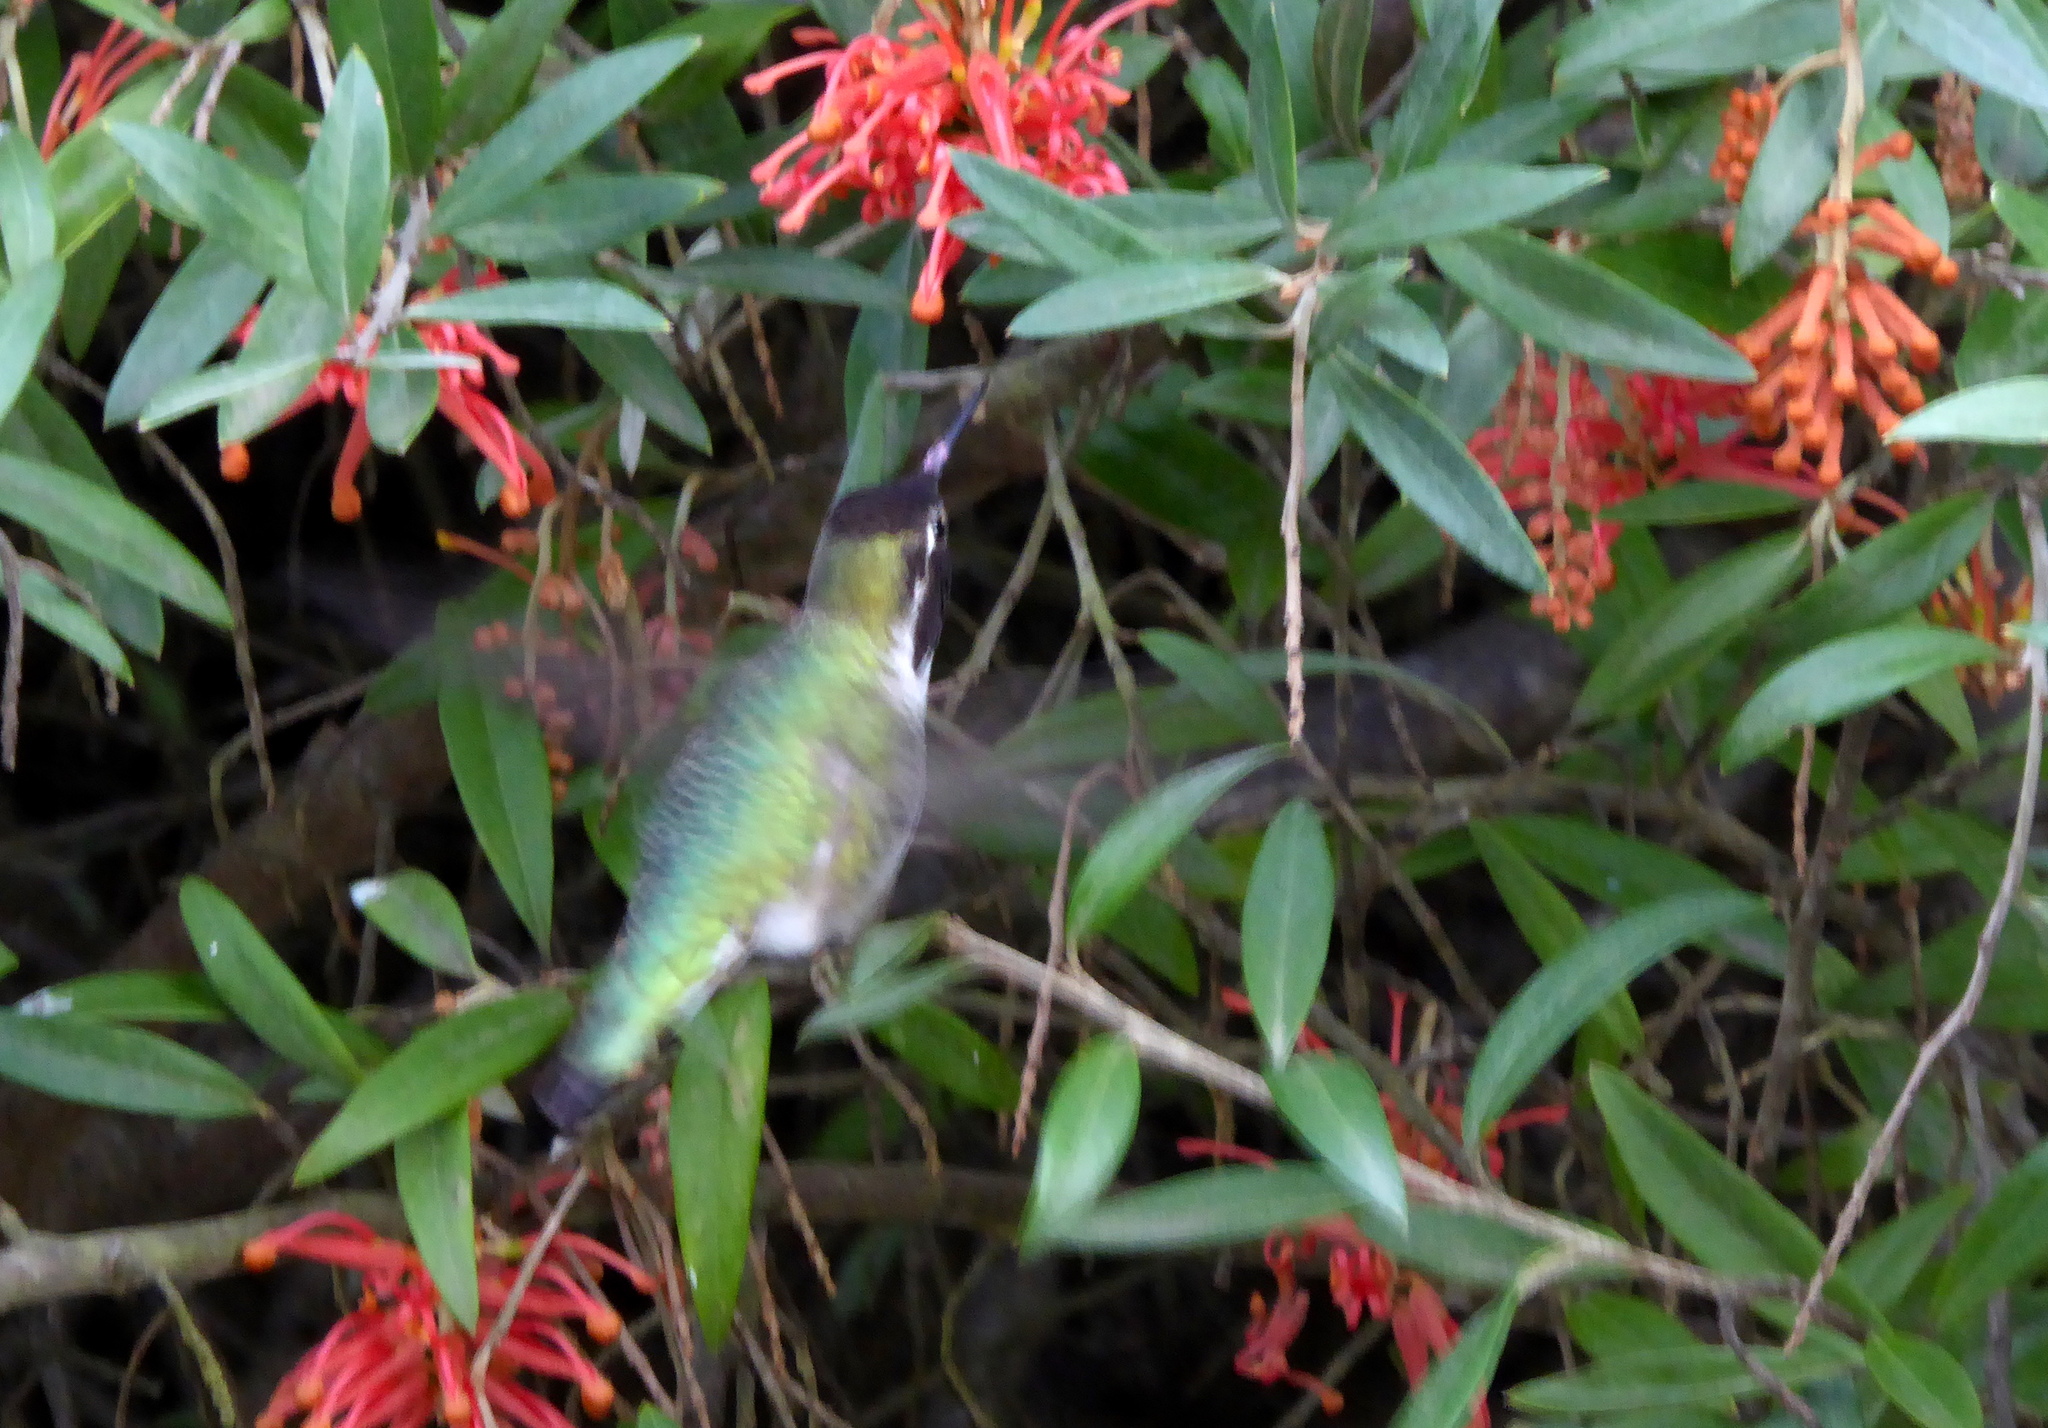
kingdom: Animalia
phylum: Chordata
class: Aves
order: Apodiformes
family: Trochilidae
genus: Calypte
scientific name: Calypte anna
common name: Anna's hummingbird
